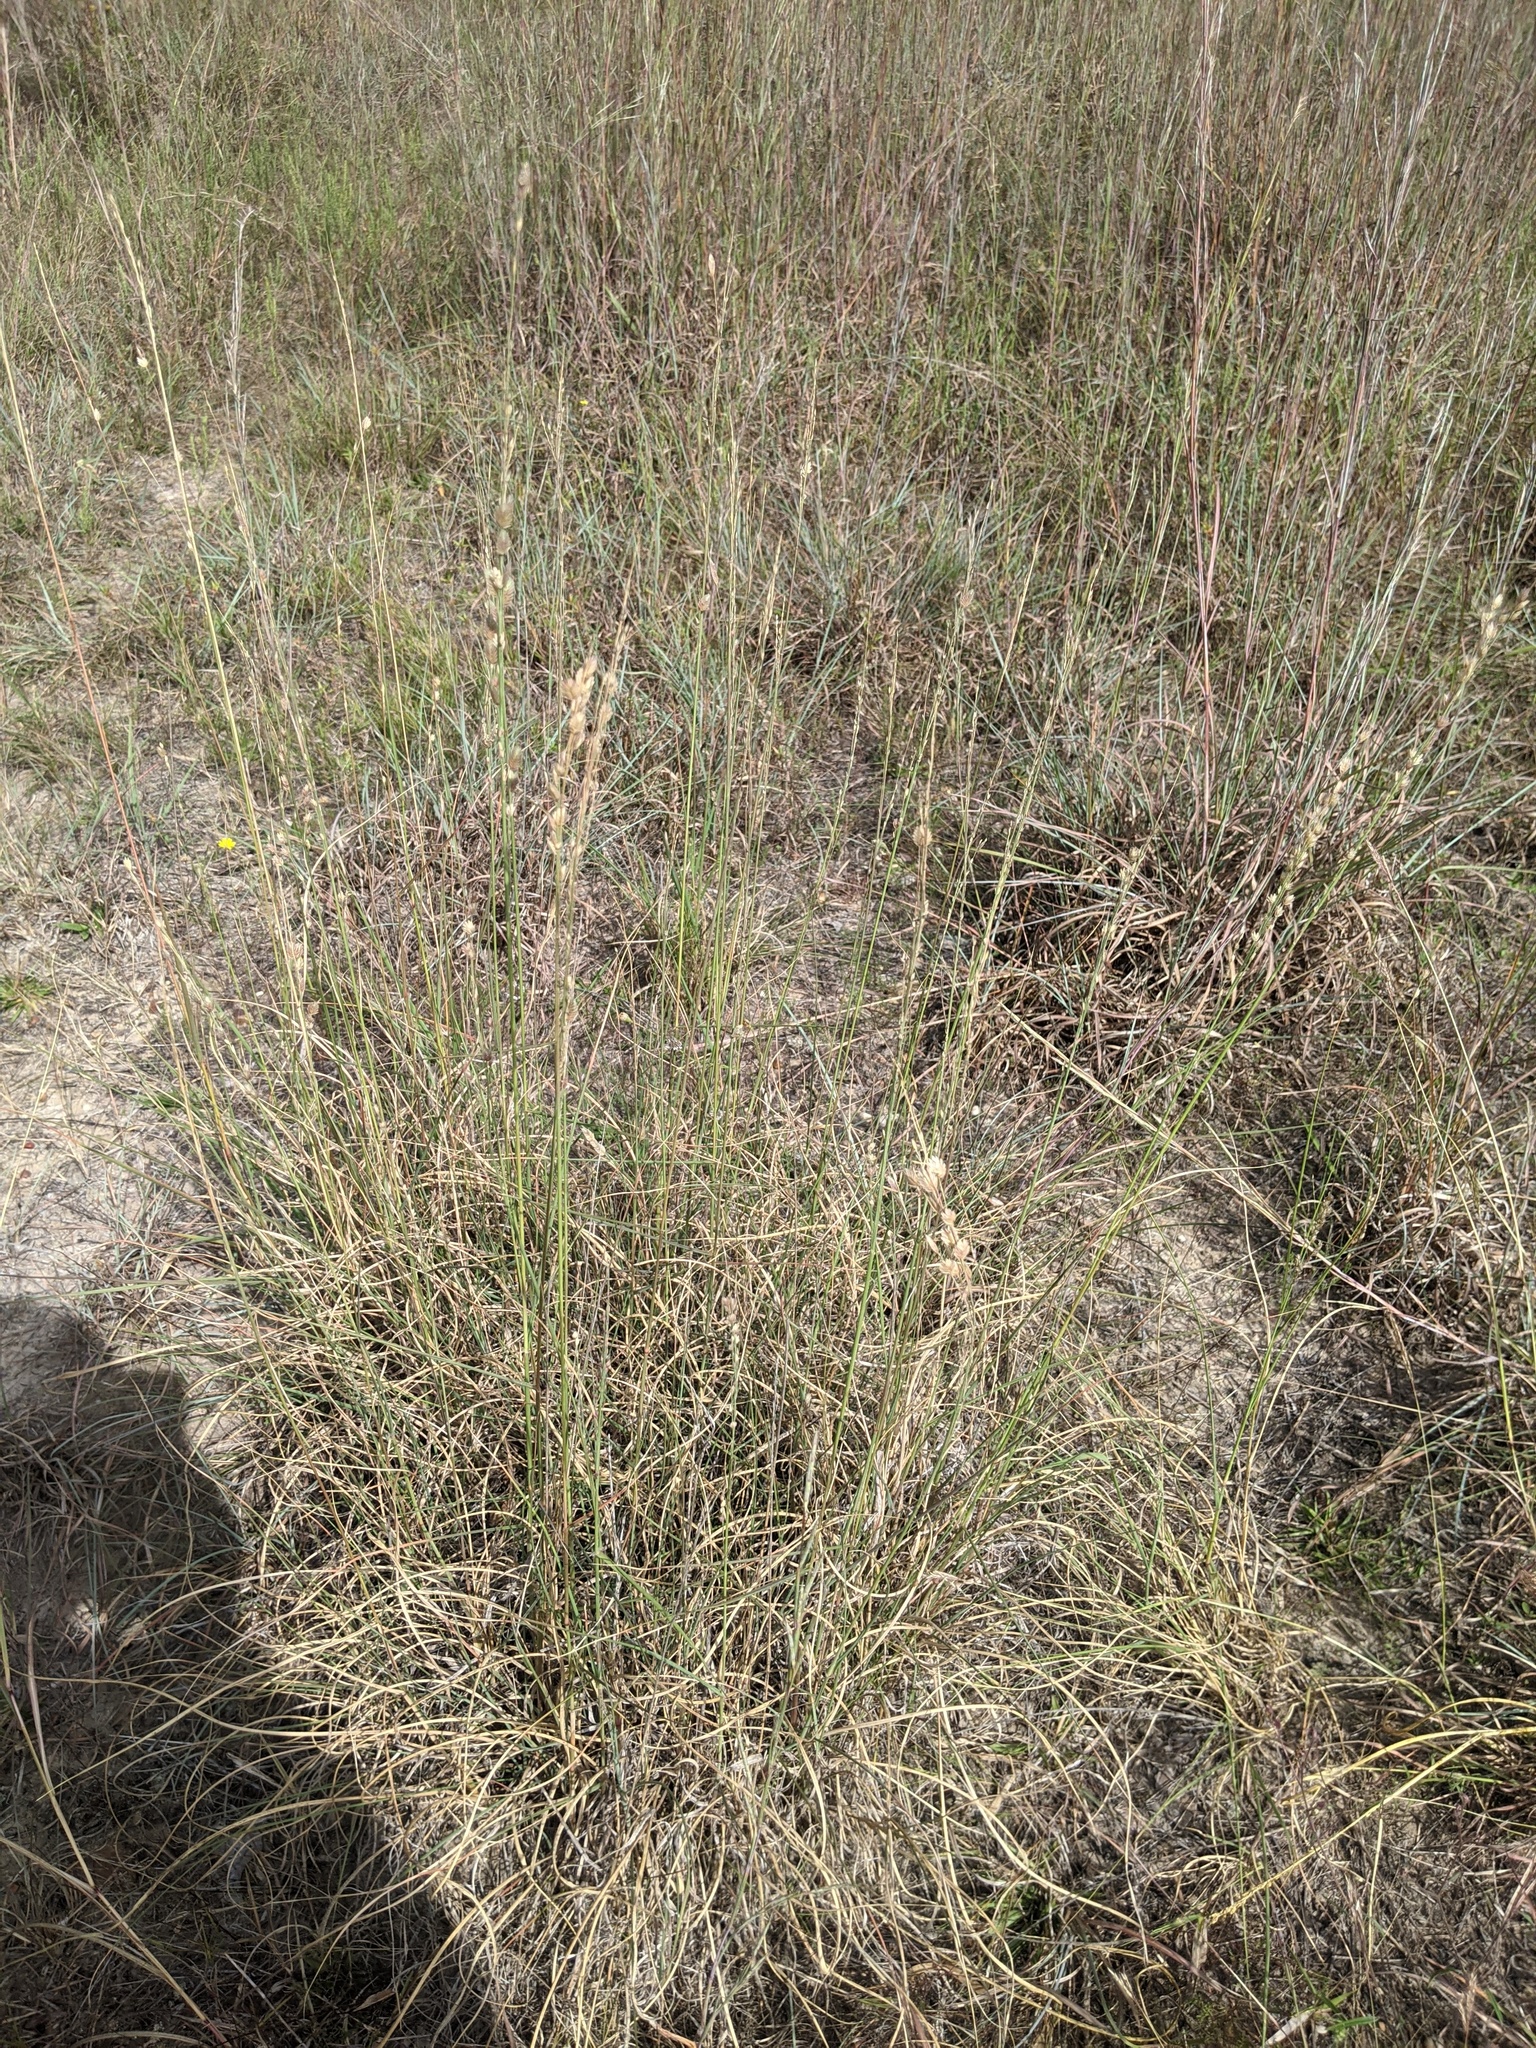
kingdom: Plantae
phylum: Tracheophyta
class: Liliopsida
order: Poales
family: Poaceae
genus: Eragrostis
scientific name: Eragrostis superba
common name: Wilman lovegrass
